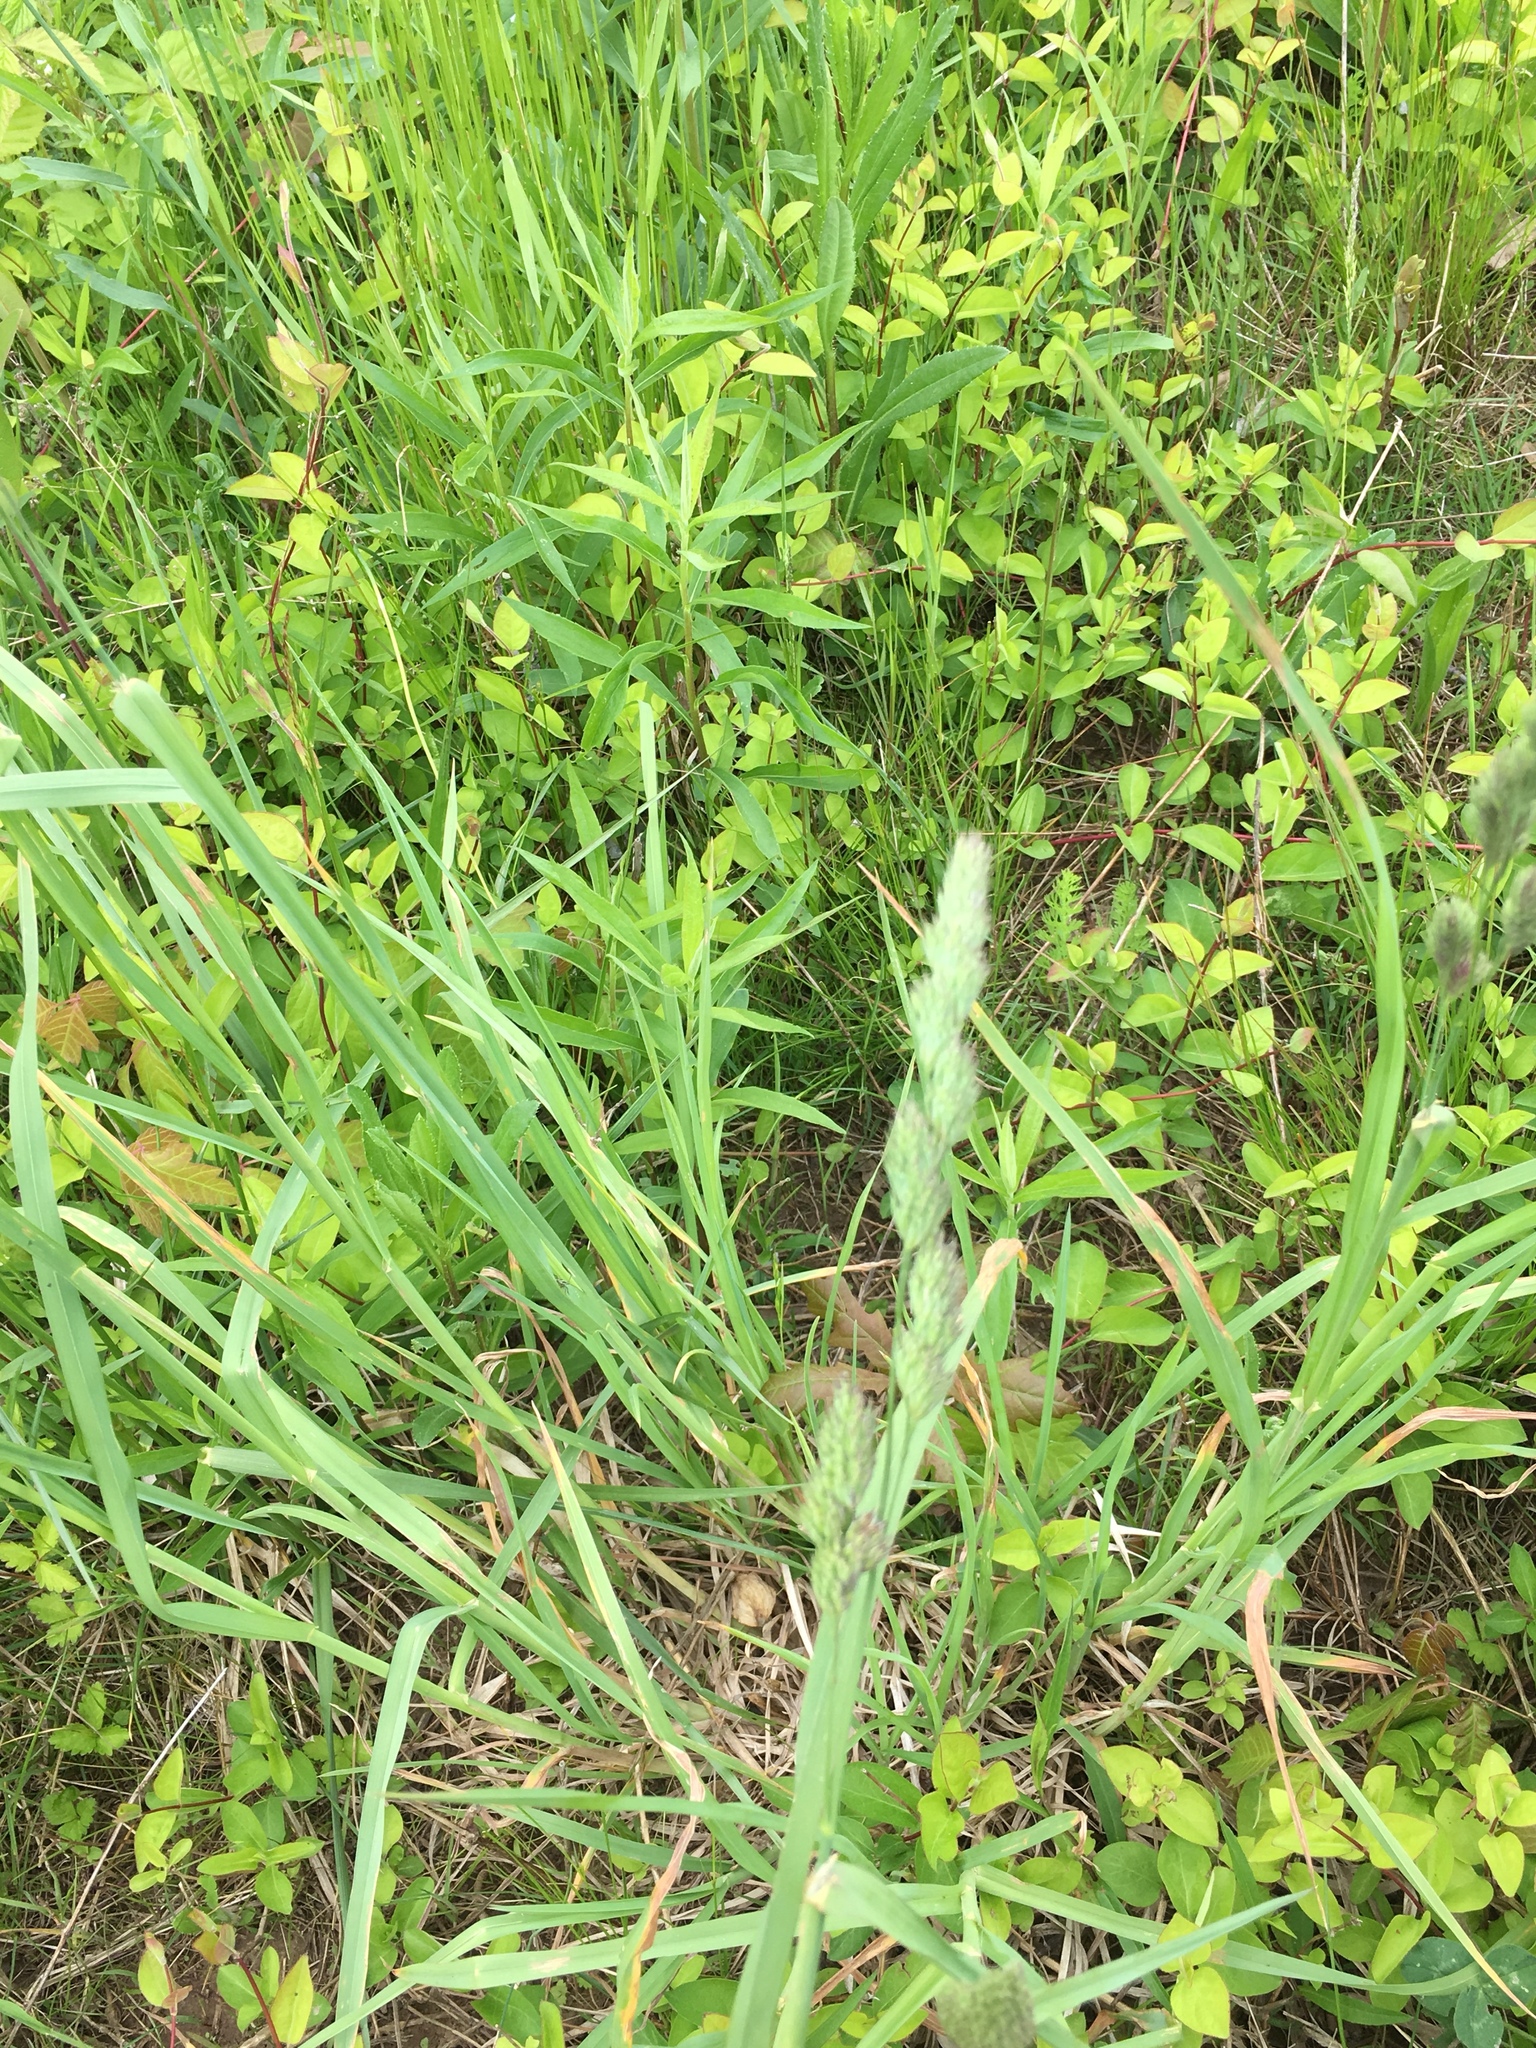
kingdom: Plantae
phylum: Tracheophyta
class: Liliopsida
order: Poales
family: Poaceae
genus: Dactylis
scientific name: Dactylis glomerata
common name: Orchardgrass
